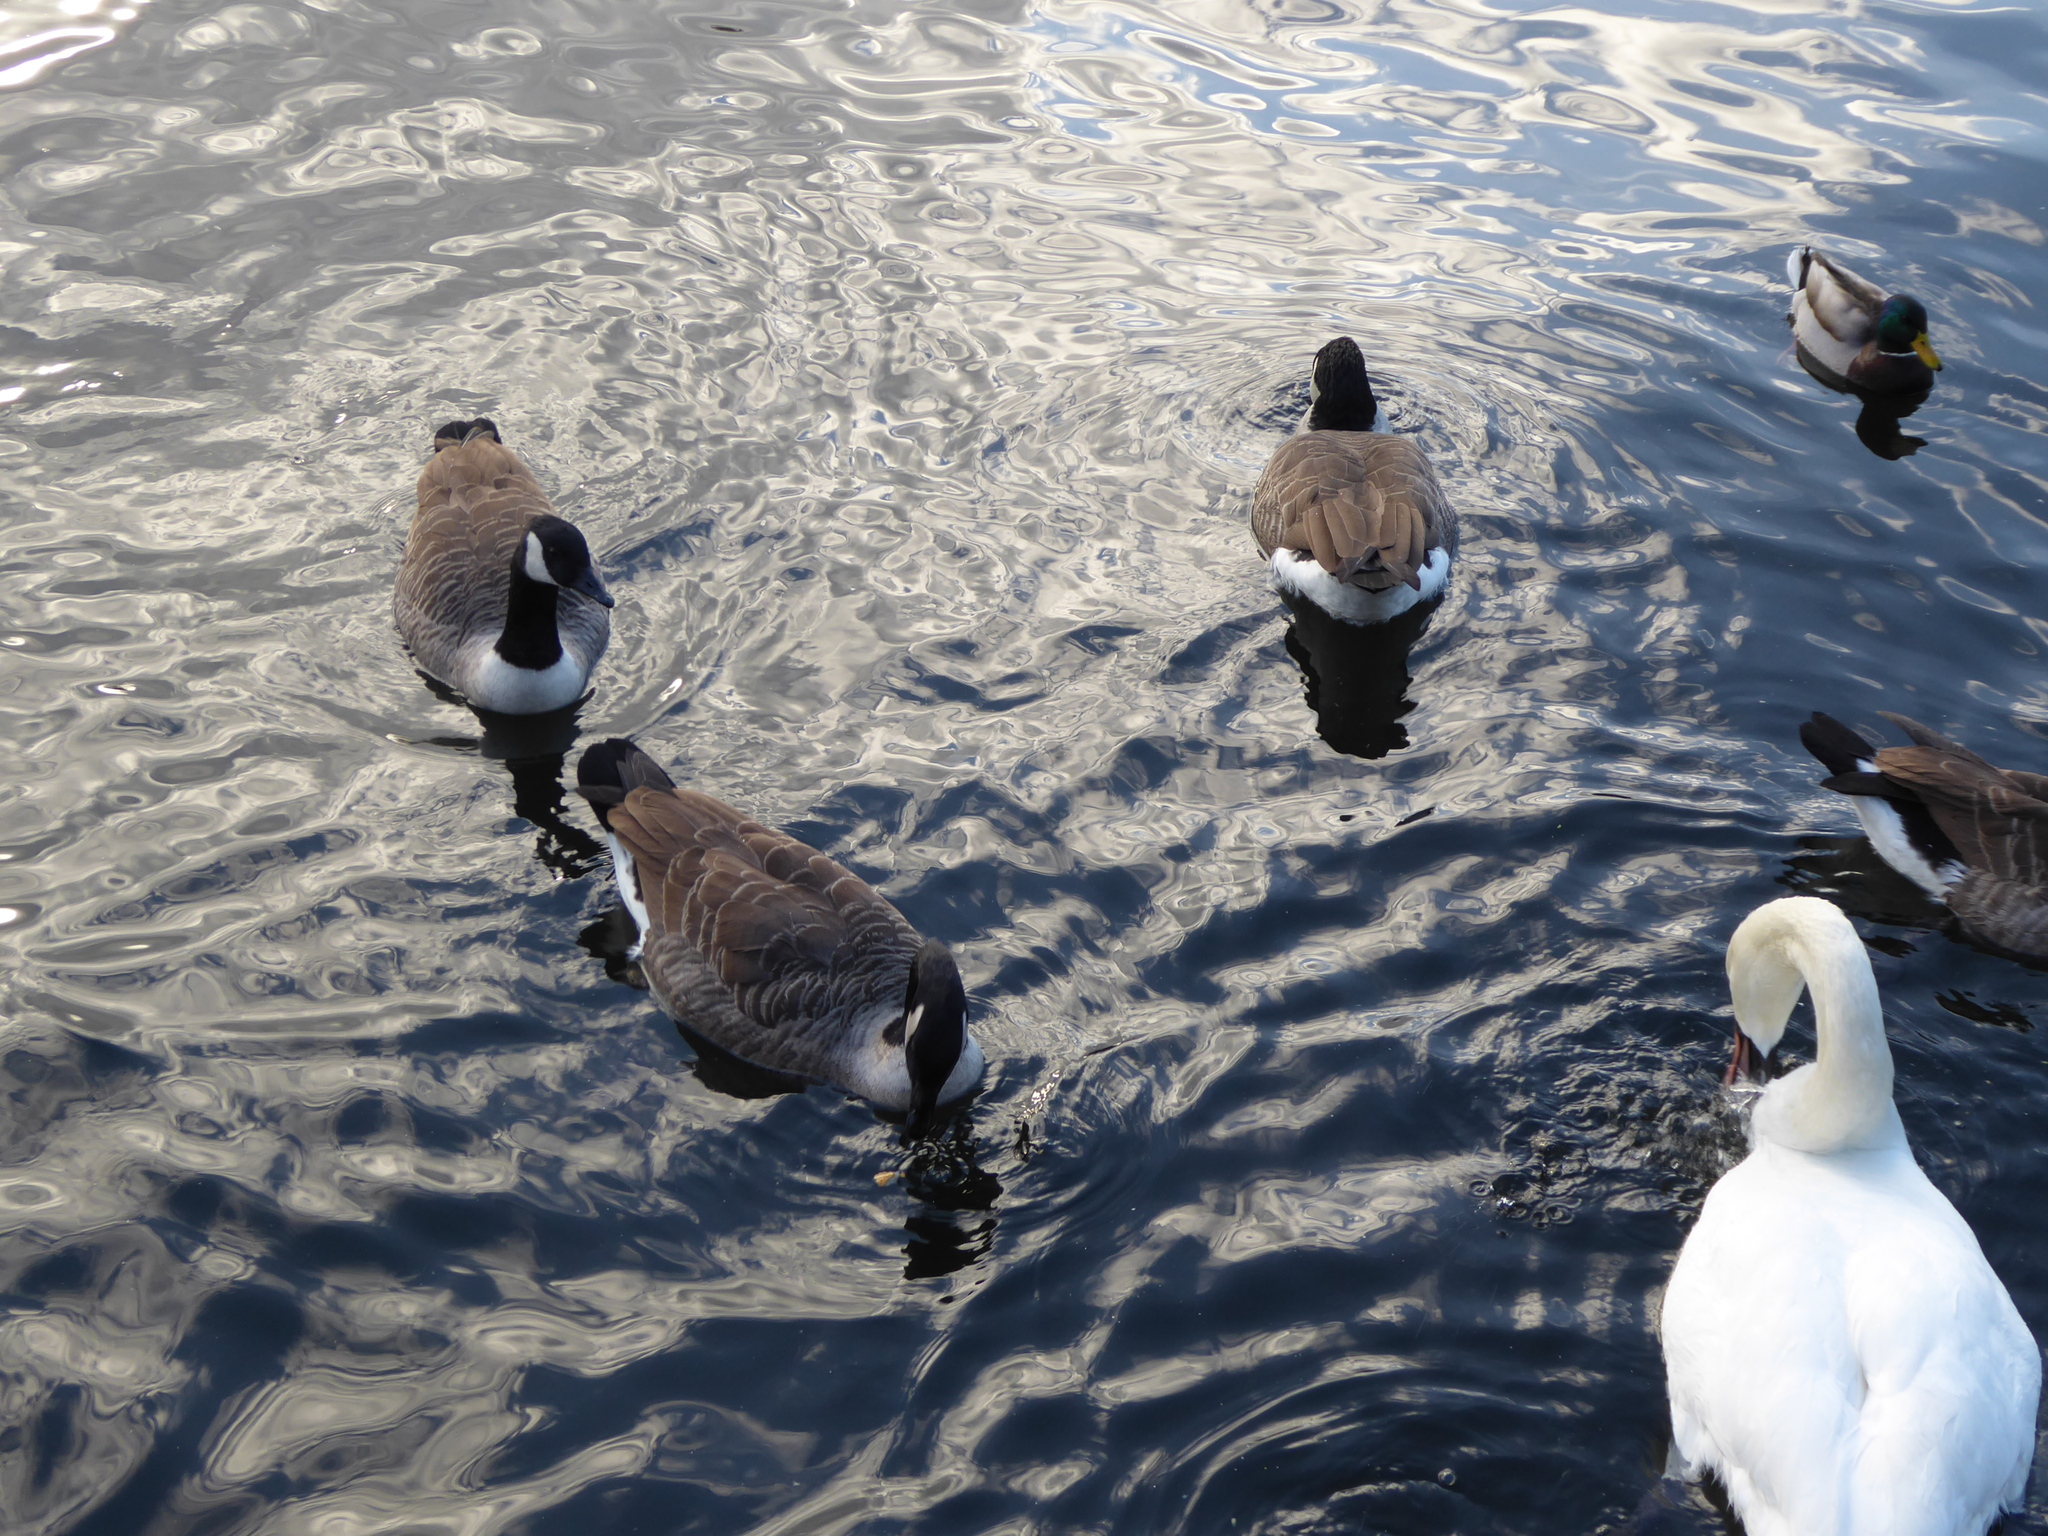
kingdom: Animalia
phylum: Chordata
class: Aves
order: Anseriformes
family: Anatidae
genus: Branta
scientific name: Branta canadensis
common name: Canada goose
